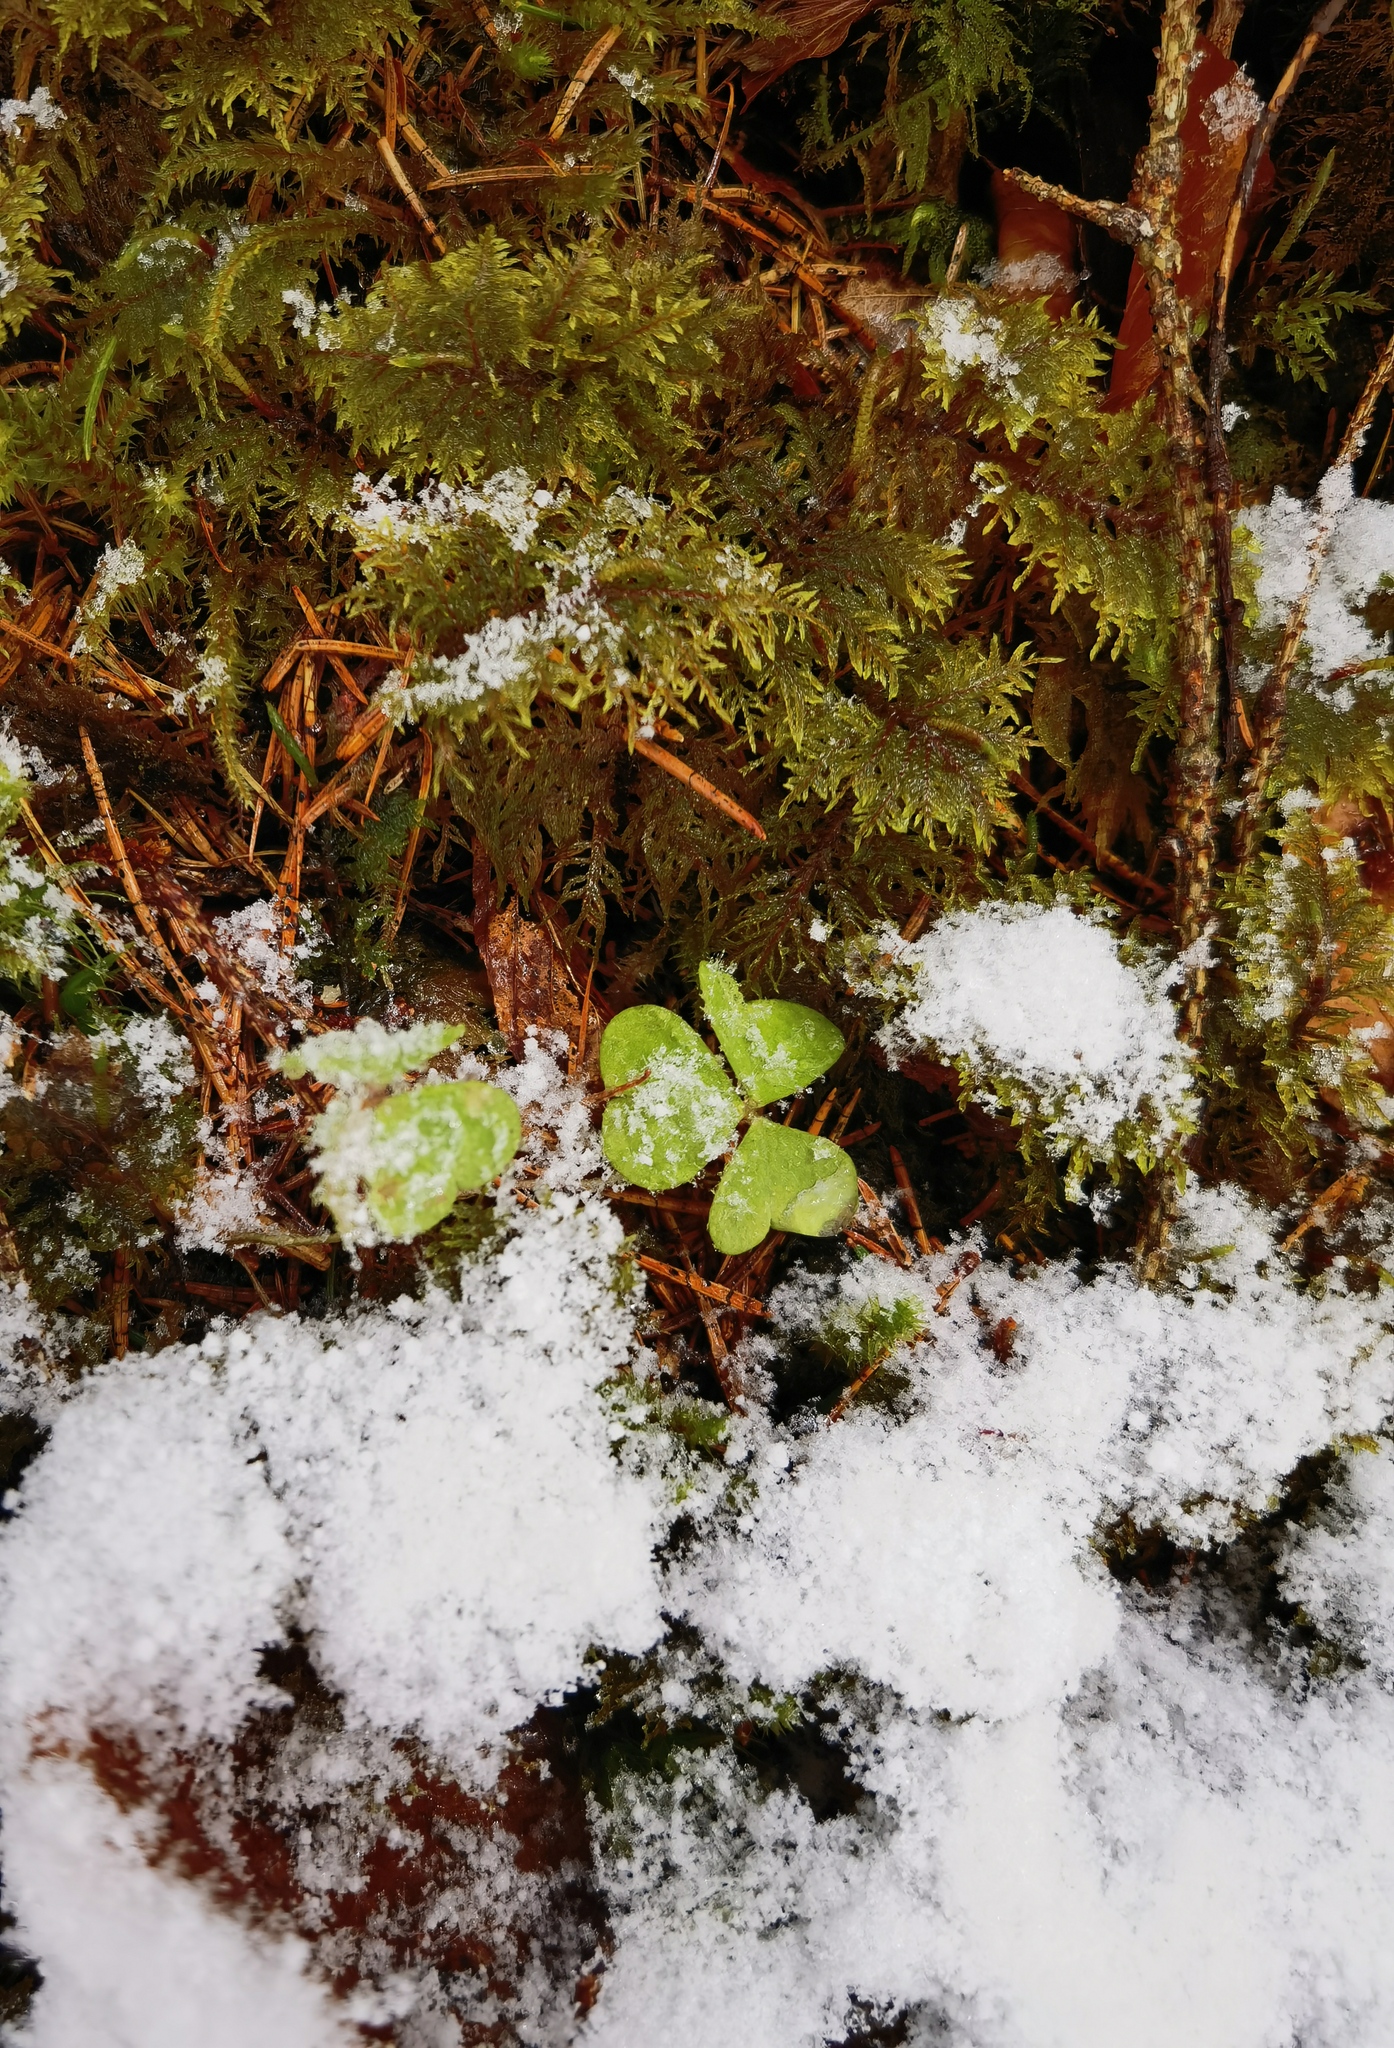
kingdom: Plantae
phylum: Tracheophyta
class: Magnoliopsida
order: Oxalidales
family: Oxalidaceae
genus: Oxalis
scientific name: Oxalis acetosella
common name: Wood-sorrel
